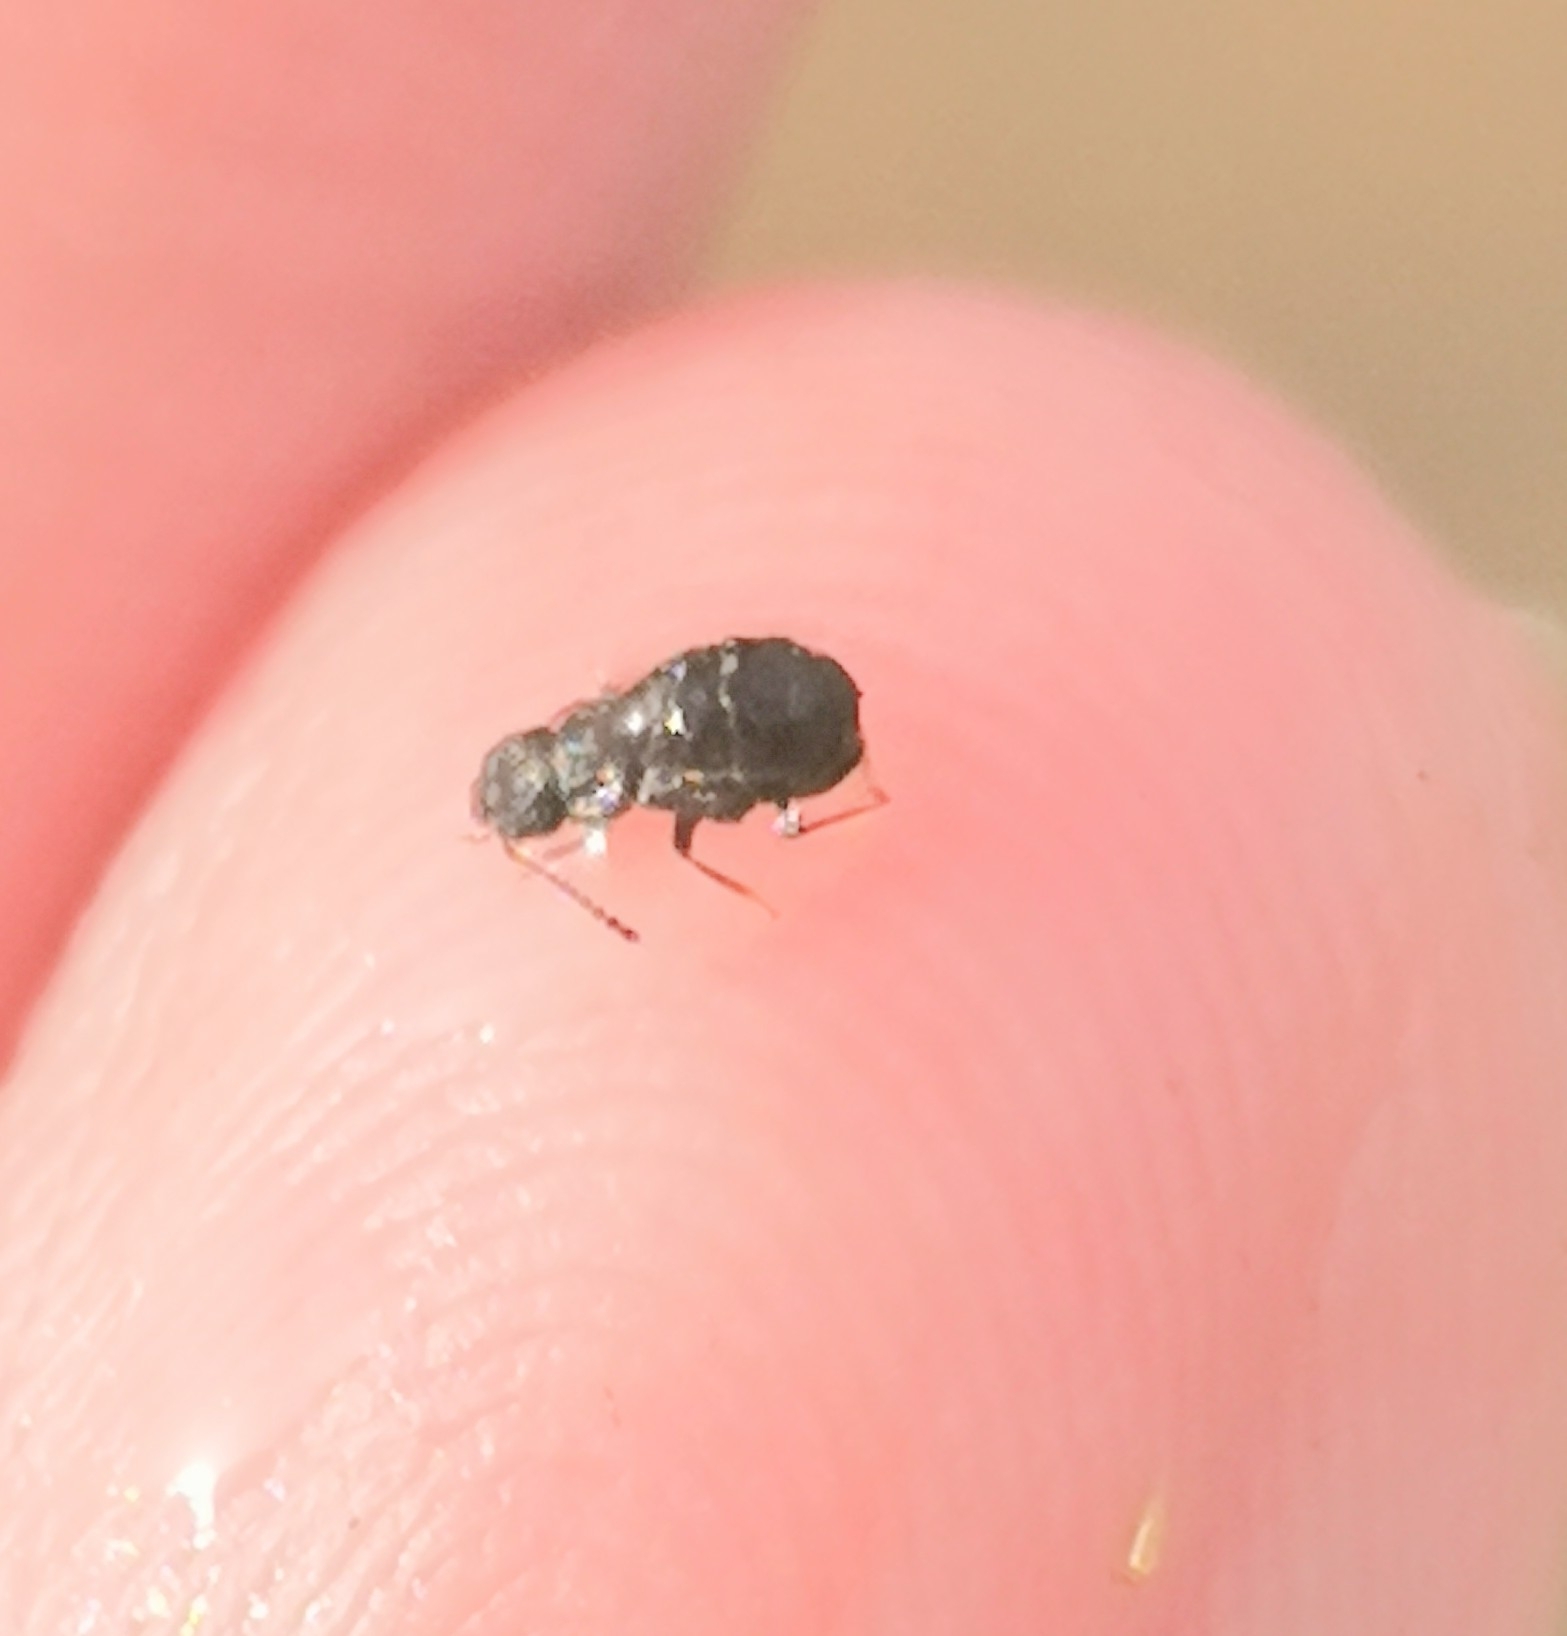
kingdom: Animalia
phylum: Arthropoda
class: Insecta
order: Coleoptera
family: Staphylinidae
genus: Anotylus
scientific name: Anotylus rugosus
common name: Rove beetle
